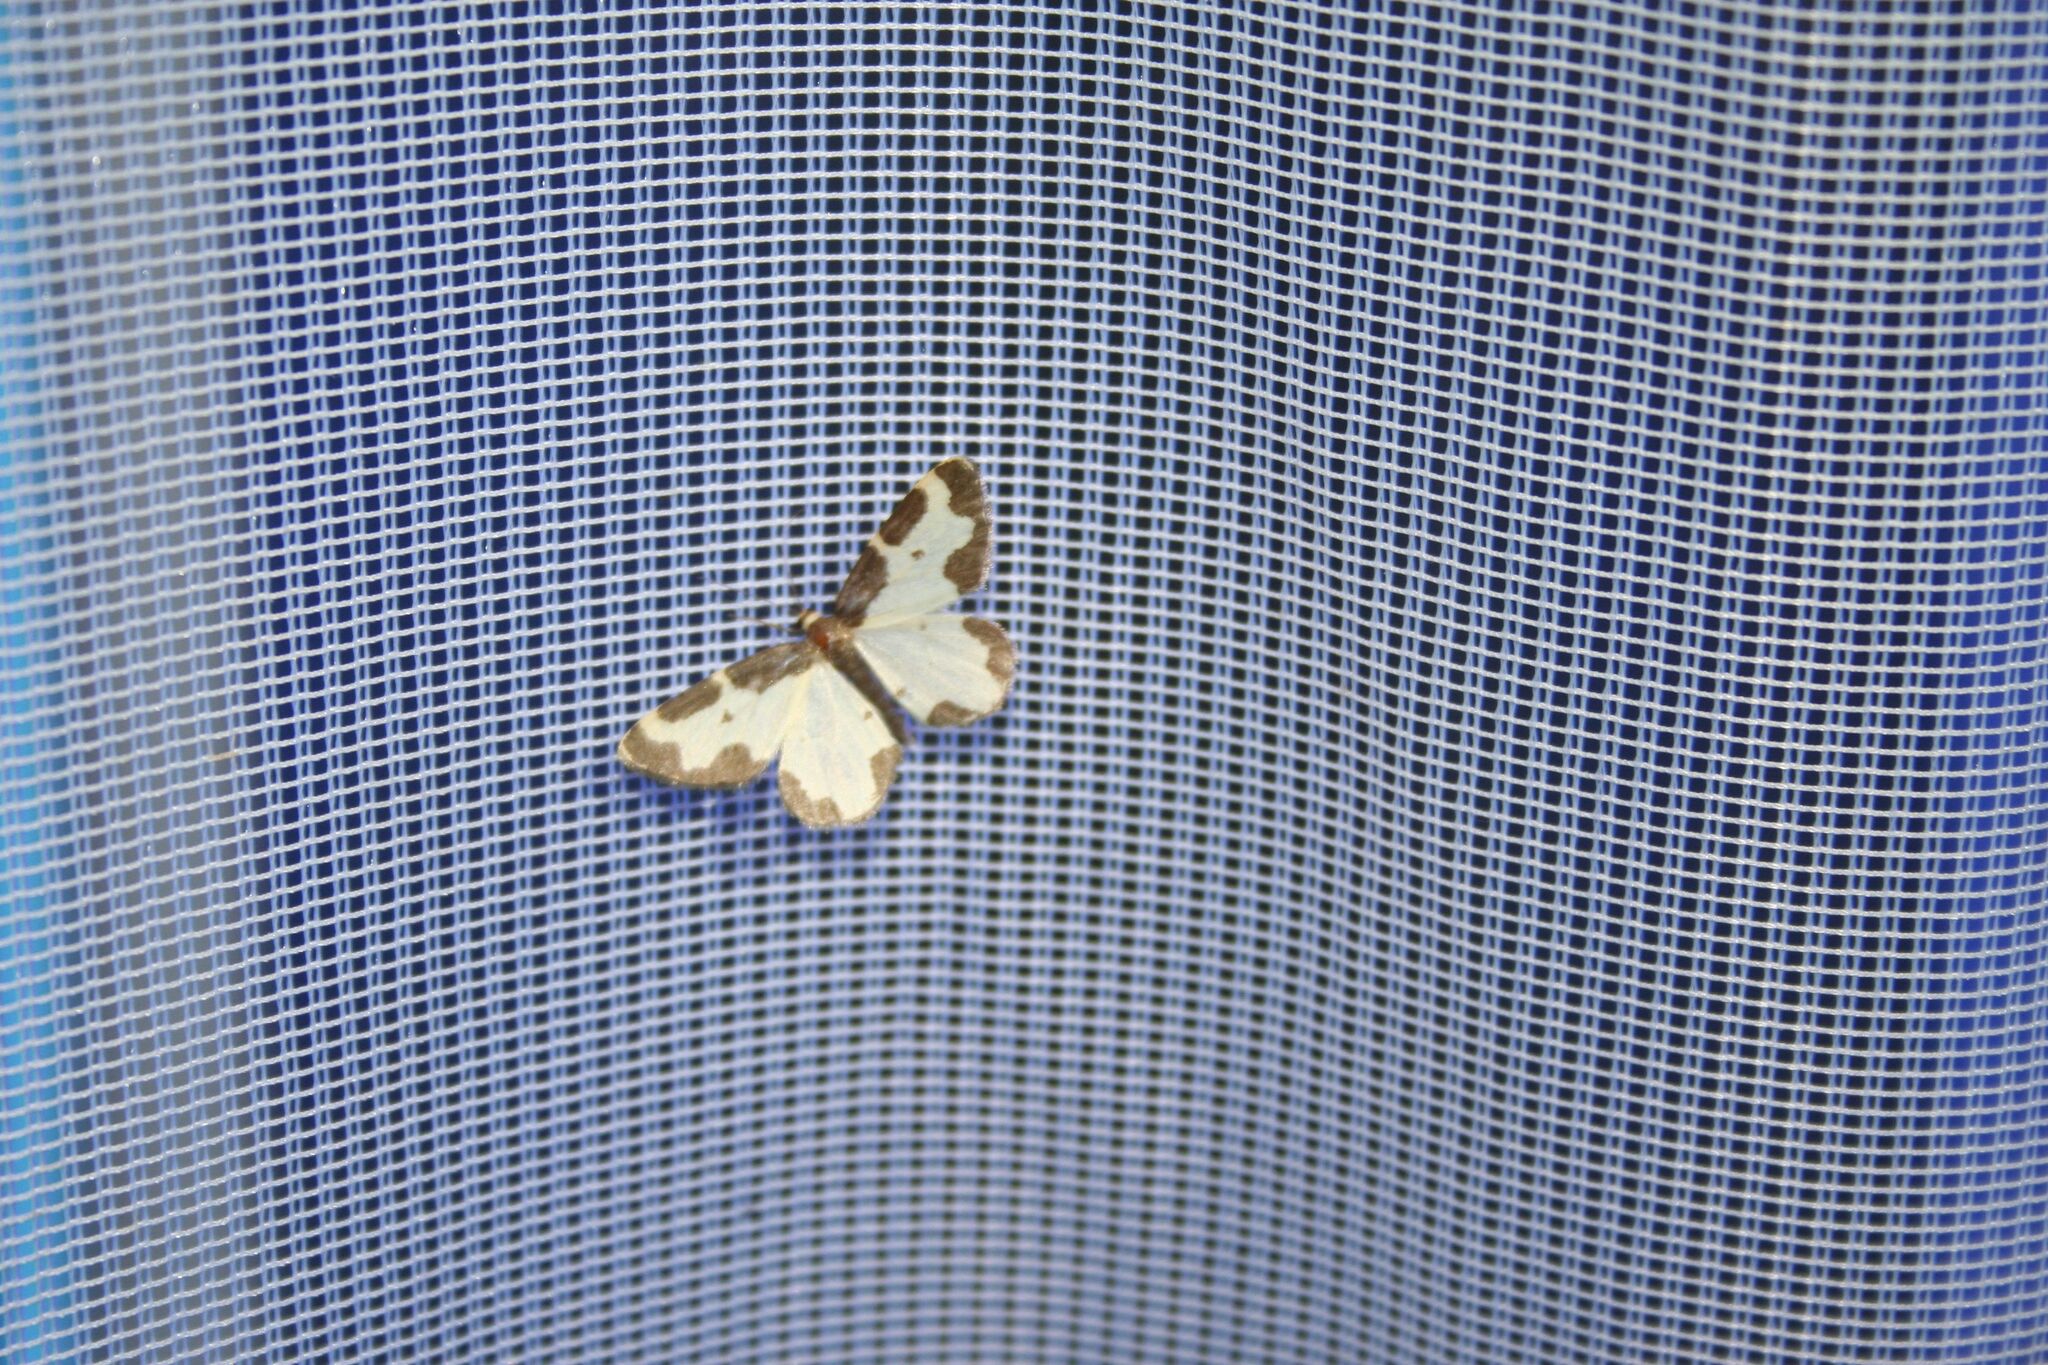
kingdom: Animalia
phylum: Arthropoda
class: Insecta
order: Lepidoptera
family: Geometridae
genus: Lomaspilis
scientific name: Lomaspilis marginata
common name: Clouded border
